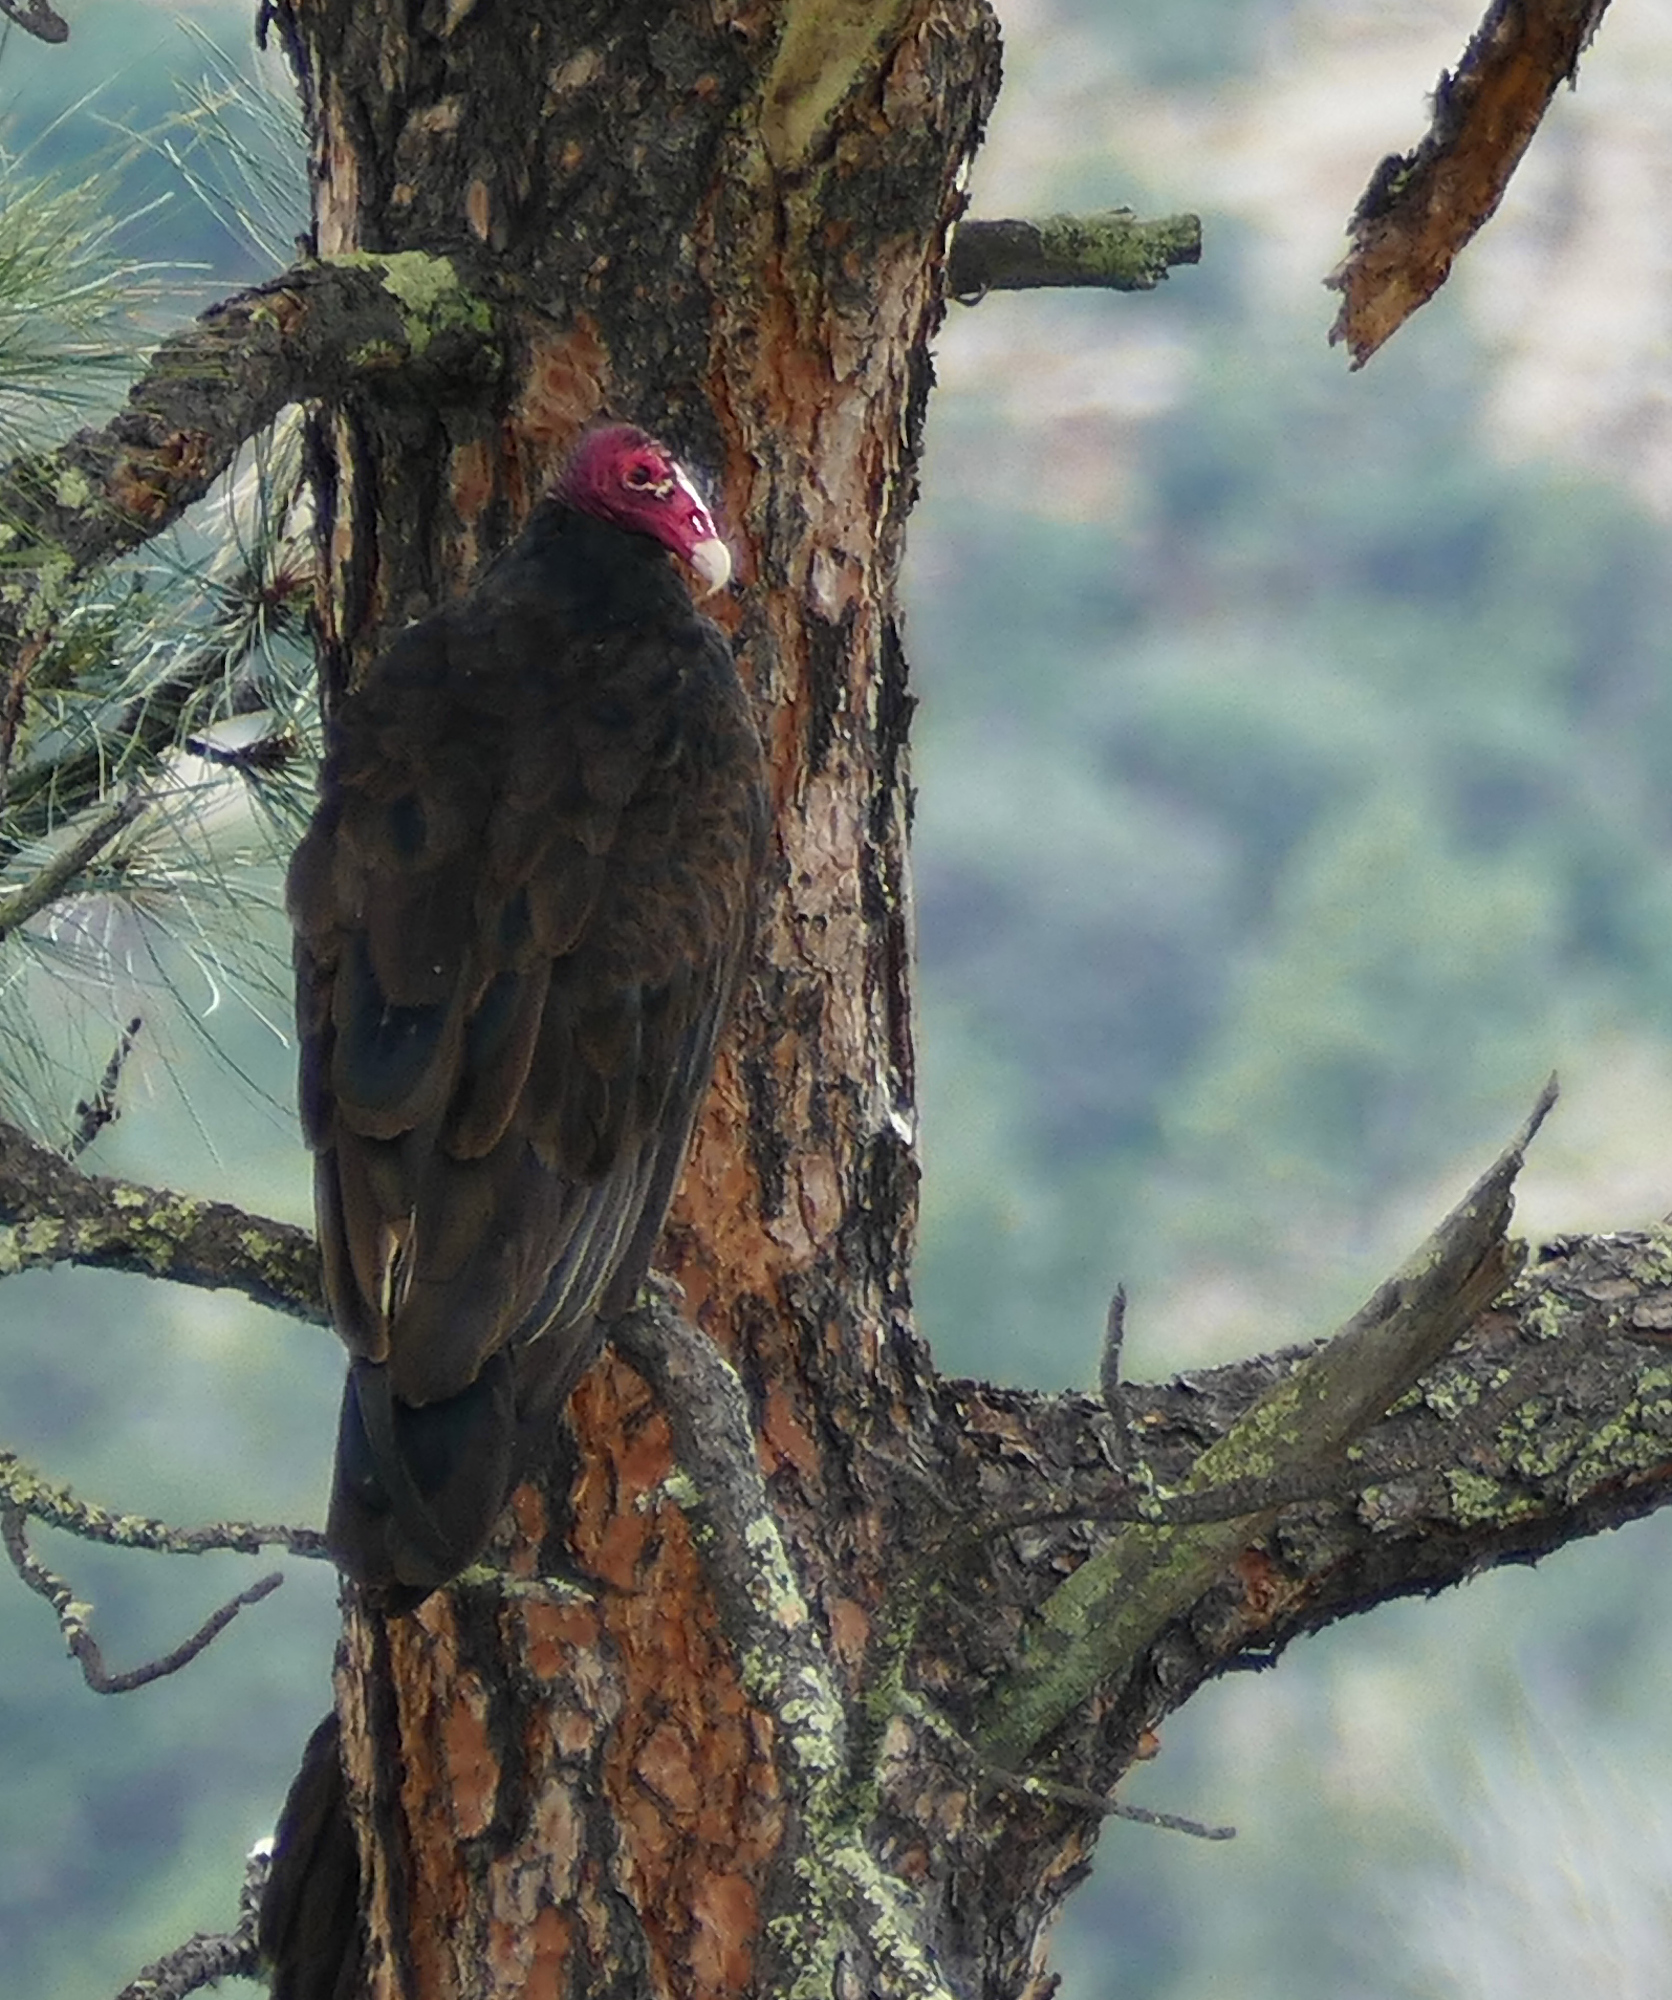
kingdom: Animalia
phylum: Chordata
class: Aves
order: Accipitriformes
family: Cathartidae
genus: Cathartes
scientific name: Cathartes aura
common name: Turkey vulture
